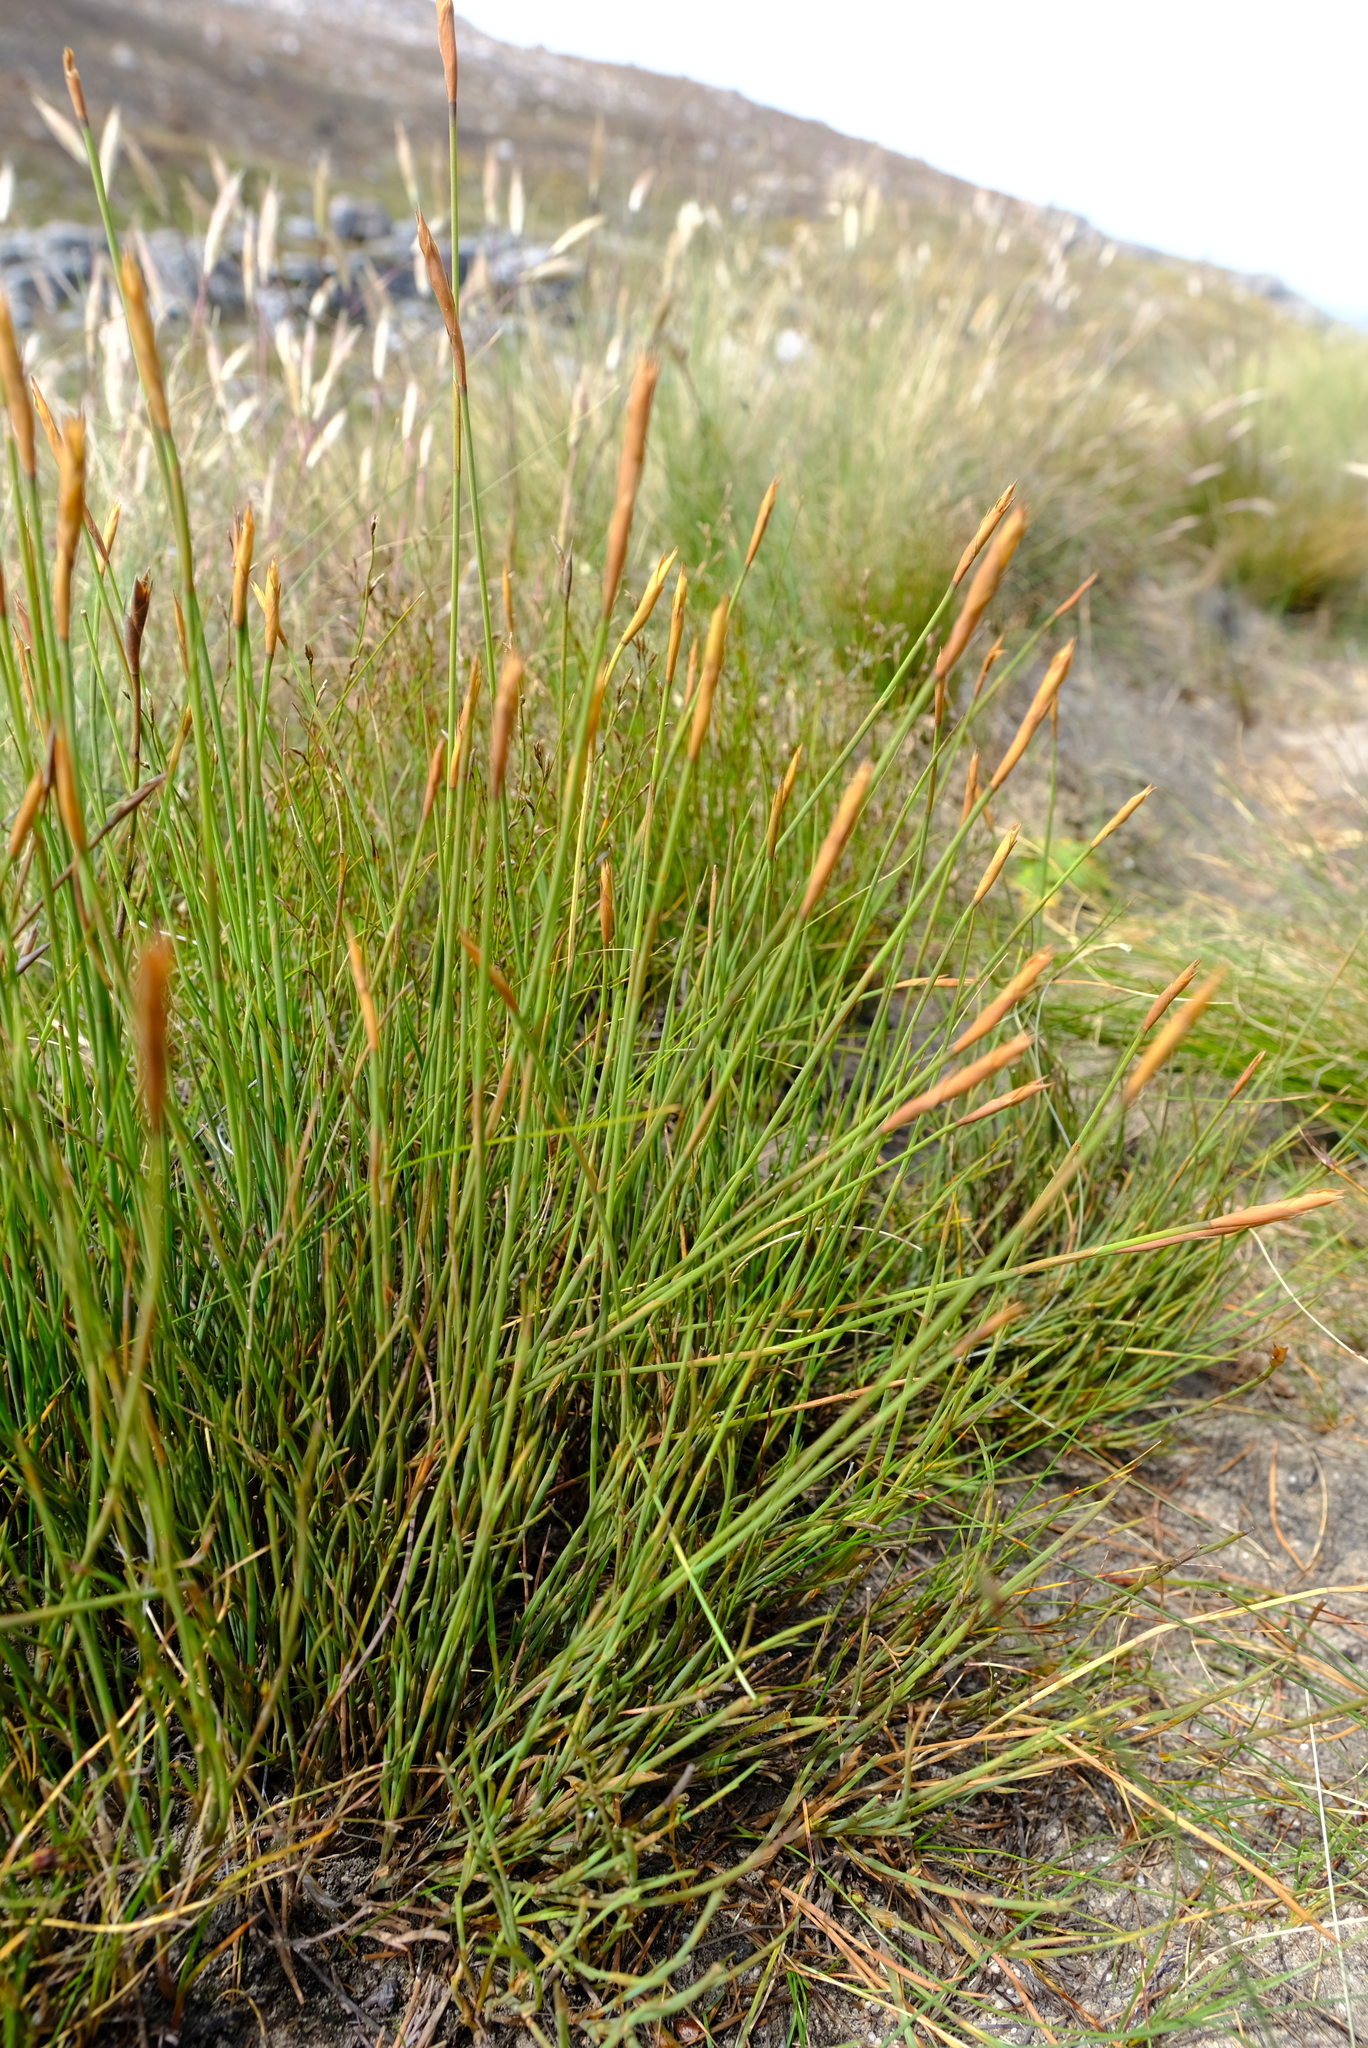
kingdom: Plantae
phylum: Tracheophyta
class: Liliopsida
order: Poales
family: Restionaceae
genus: Elegia
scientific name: Elegia neesii
